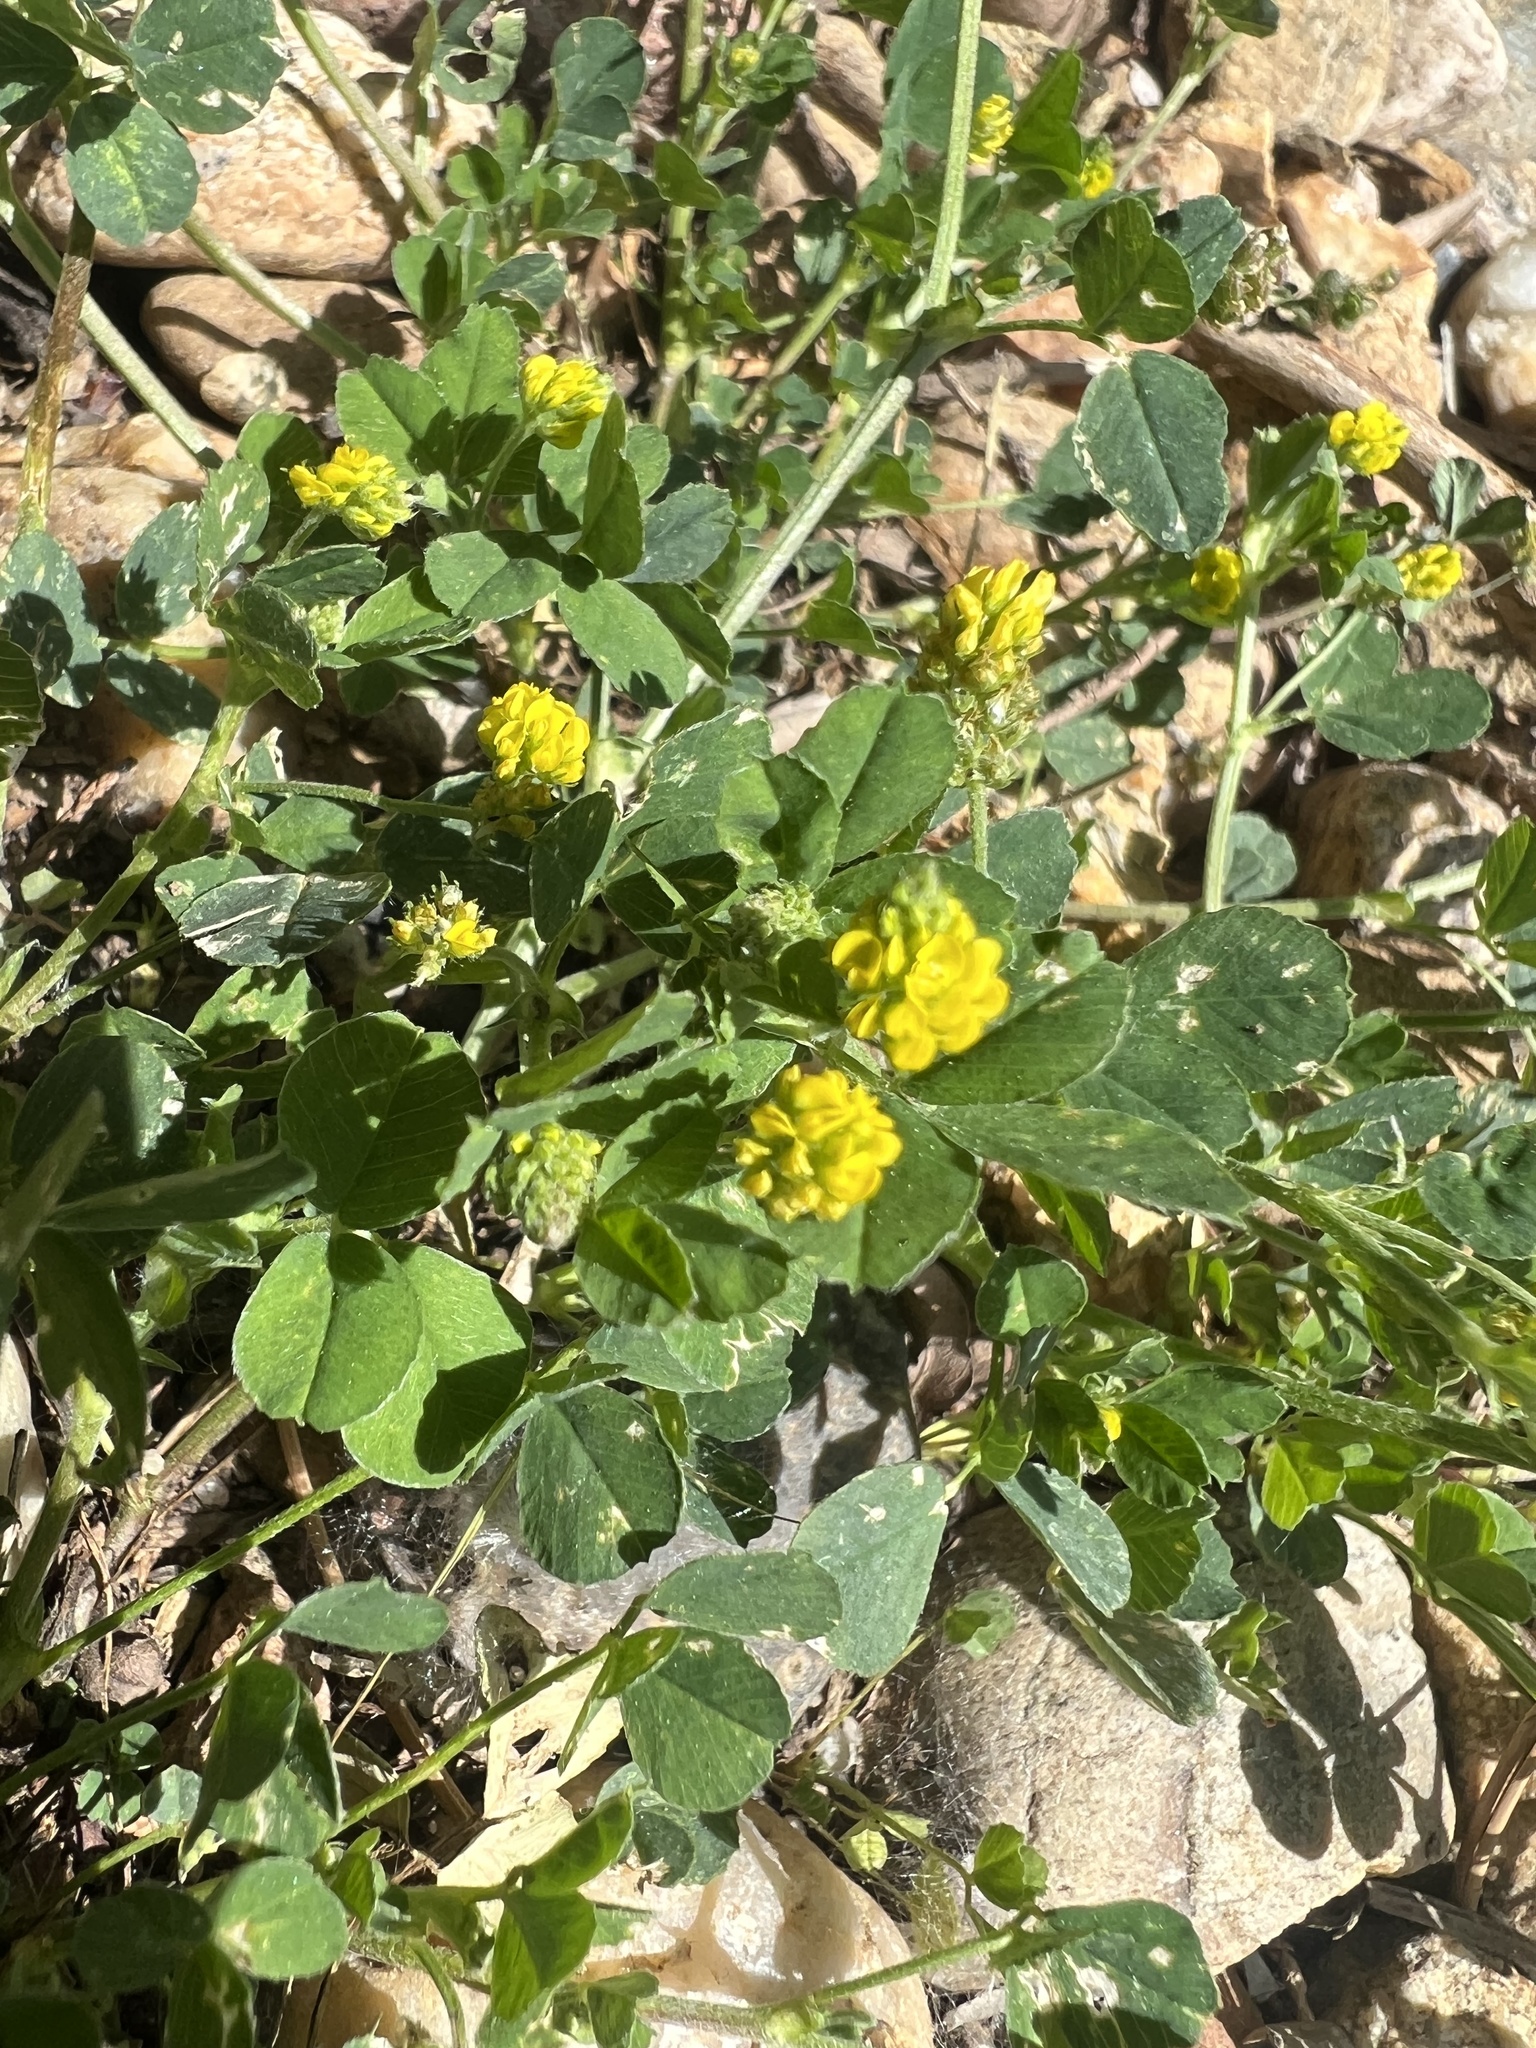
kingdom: Plantae
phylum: Tracheophyta
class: Magnoliopsida
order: Fabales
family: Fabaceae
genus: Medicago
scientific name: Medicago lupulina
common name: Black medick
